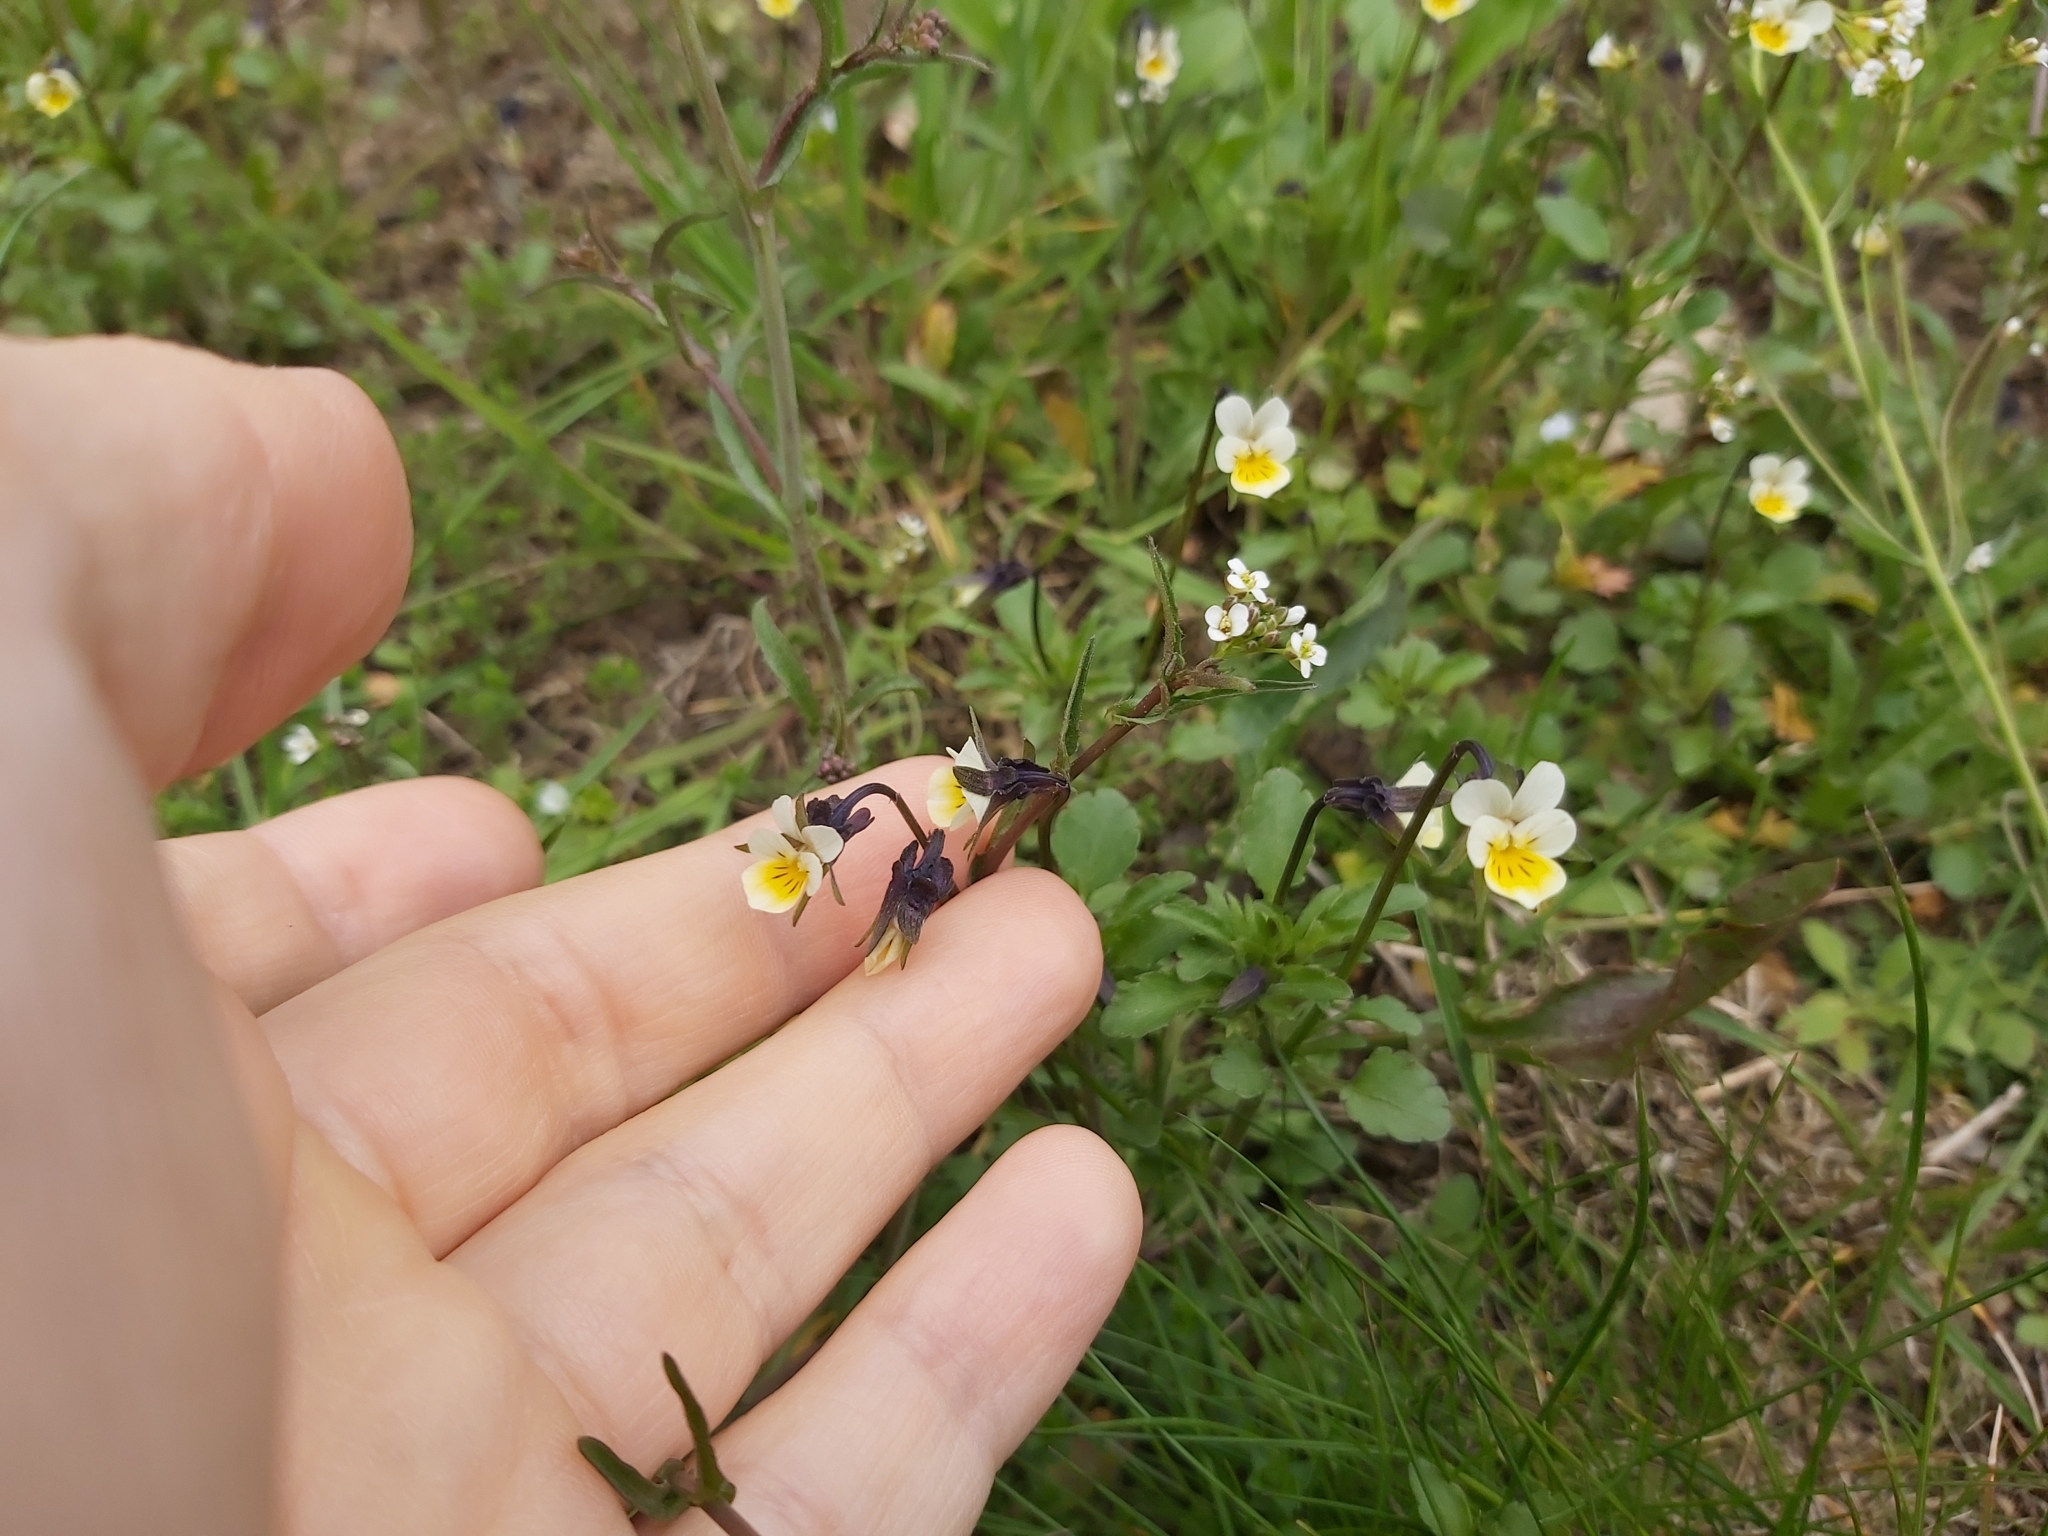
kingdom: Plantae
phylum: Tracheophyta
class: Magnoliopsida
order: Malpighiales
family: Violaceae
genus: Viola
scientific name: Viola arvensis
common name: Field pansy
